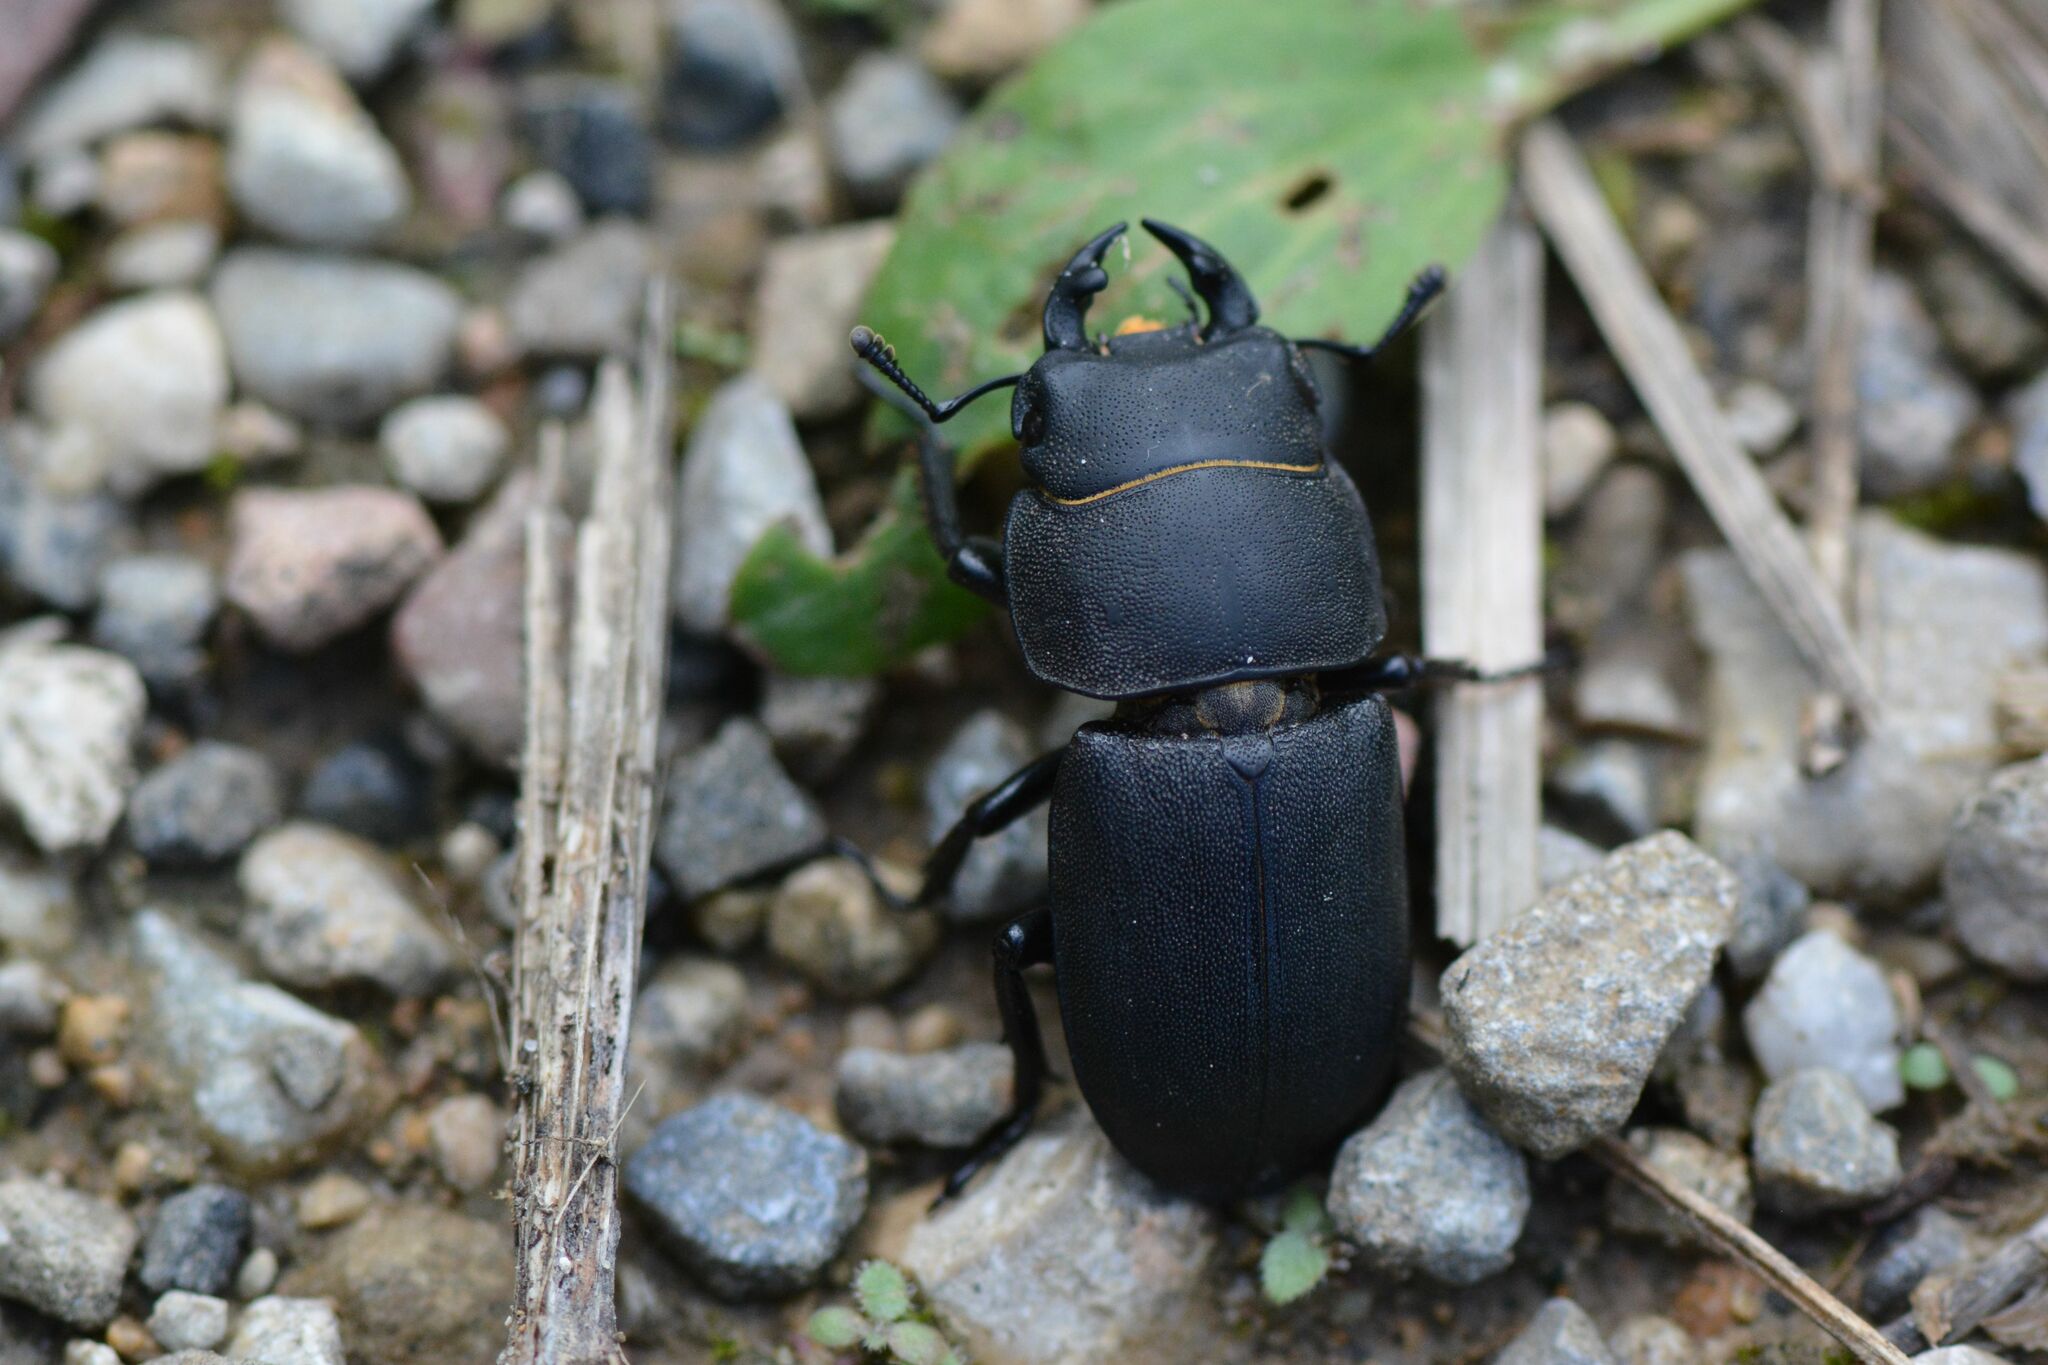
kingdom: Animalia
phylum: Arthropoda
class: Insecta
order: Coleoptera
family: Lucanidae
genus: Dorcus
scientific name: Dorcus parallelipipedus
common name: Lesser stag beetle
